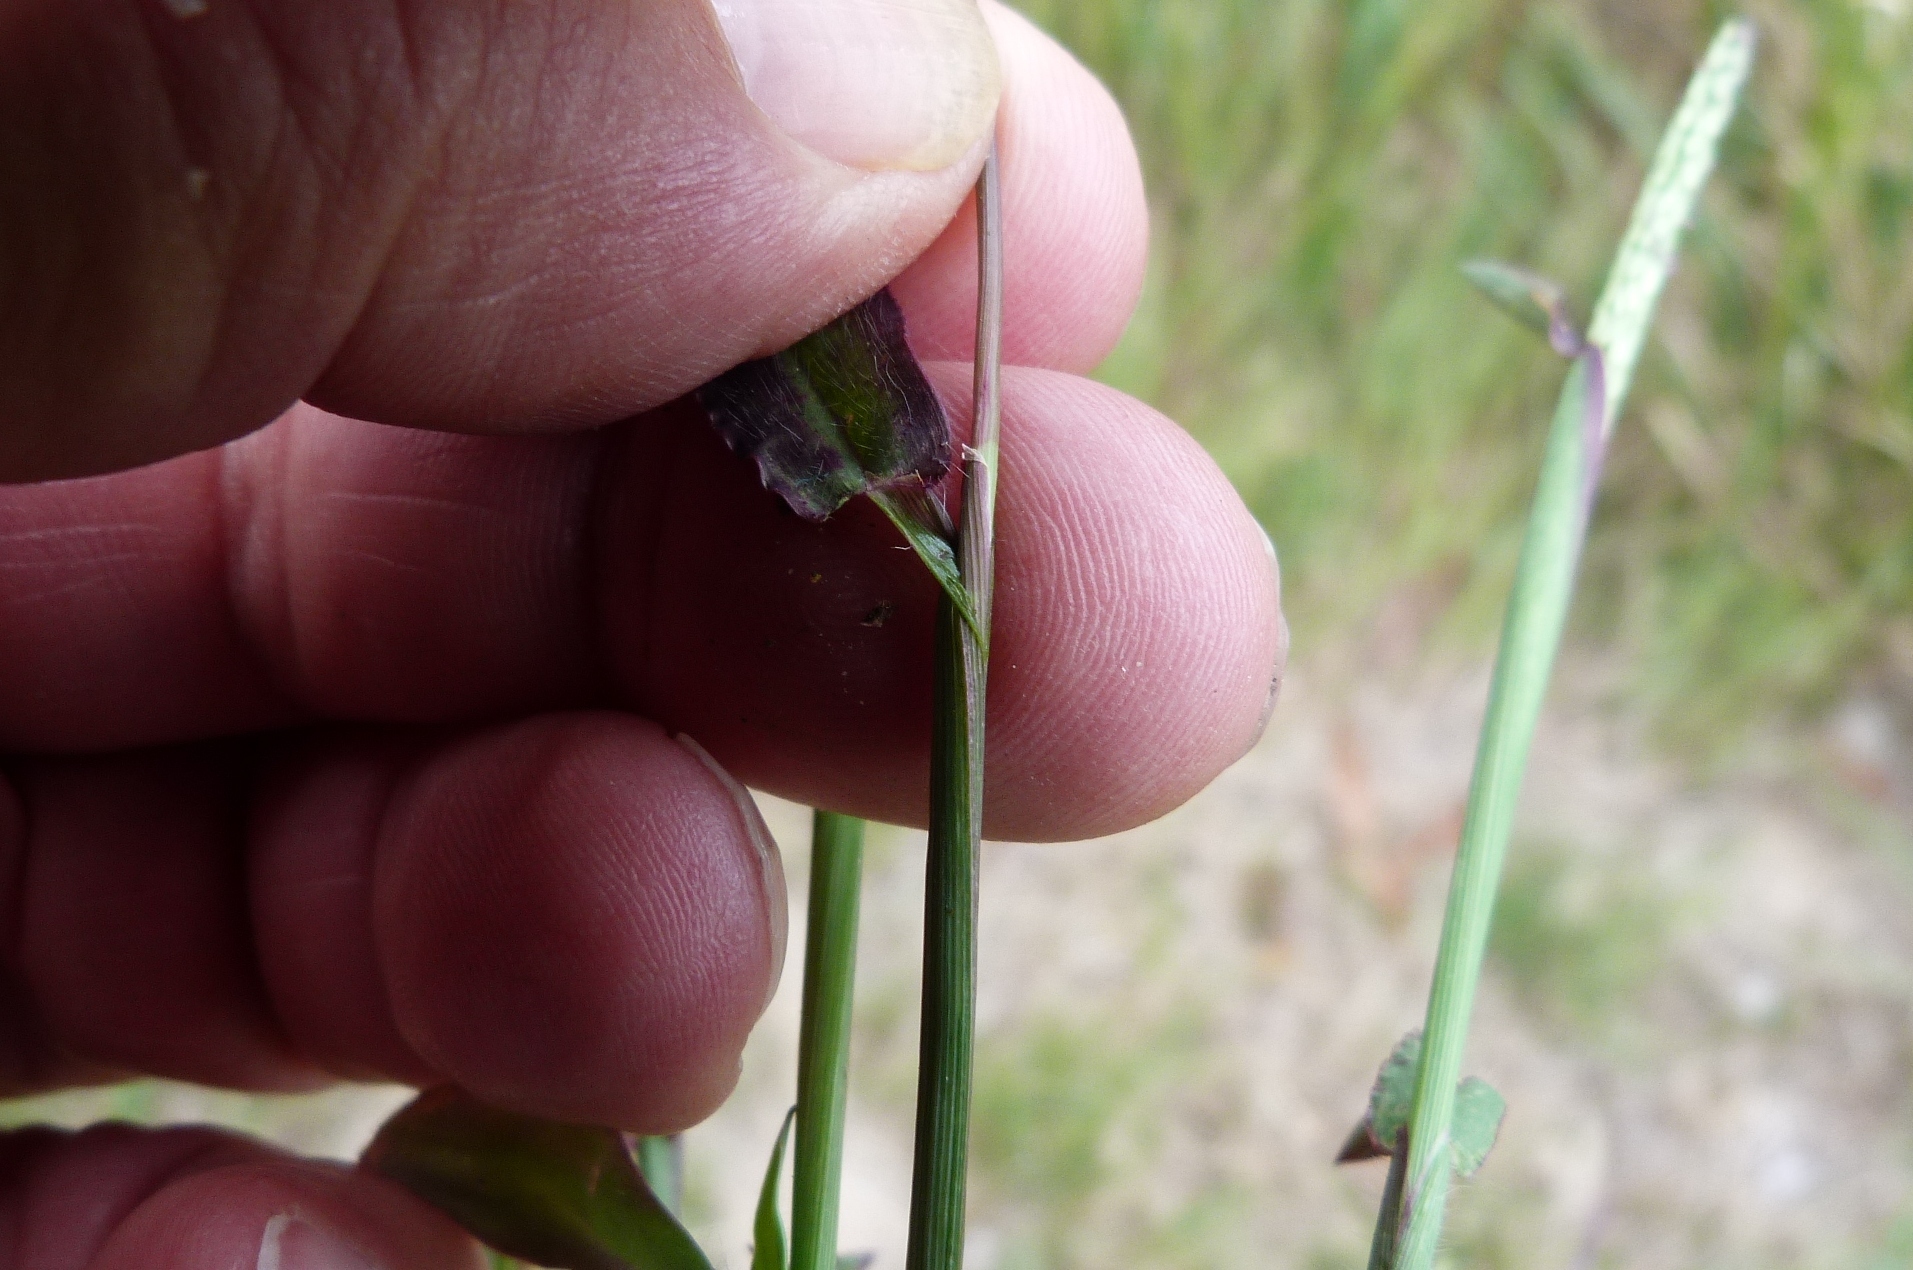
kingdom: Plantae
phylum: Tracheophyta
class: Liliopsida
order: Poales
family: Poaceae
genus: Digitaria
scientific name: Digitaria sanguinalis
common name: Hairy crabgrass
